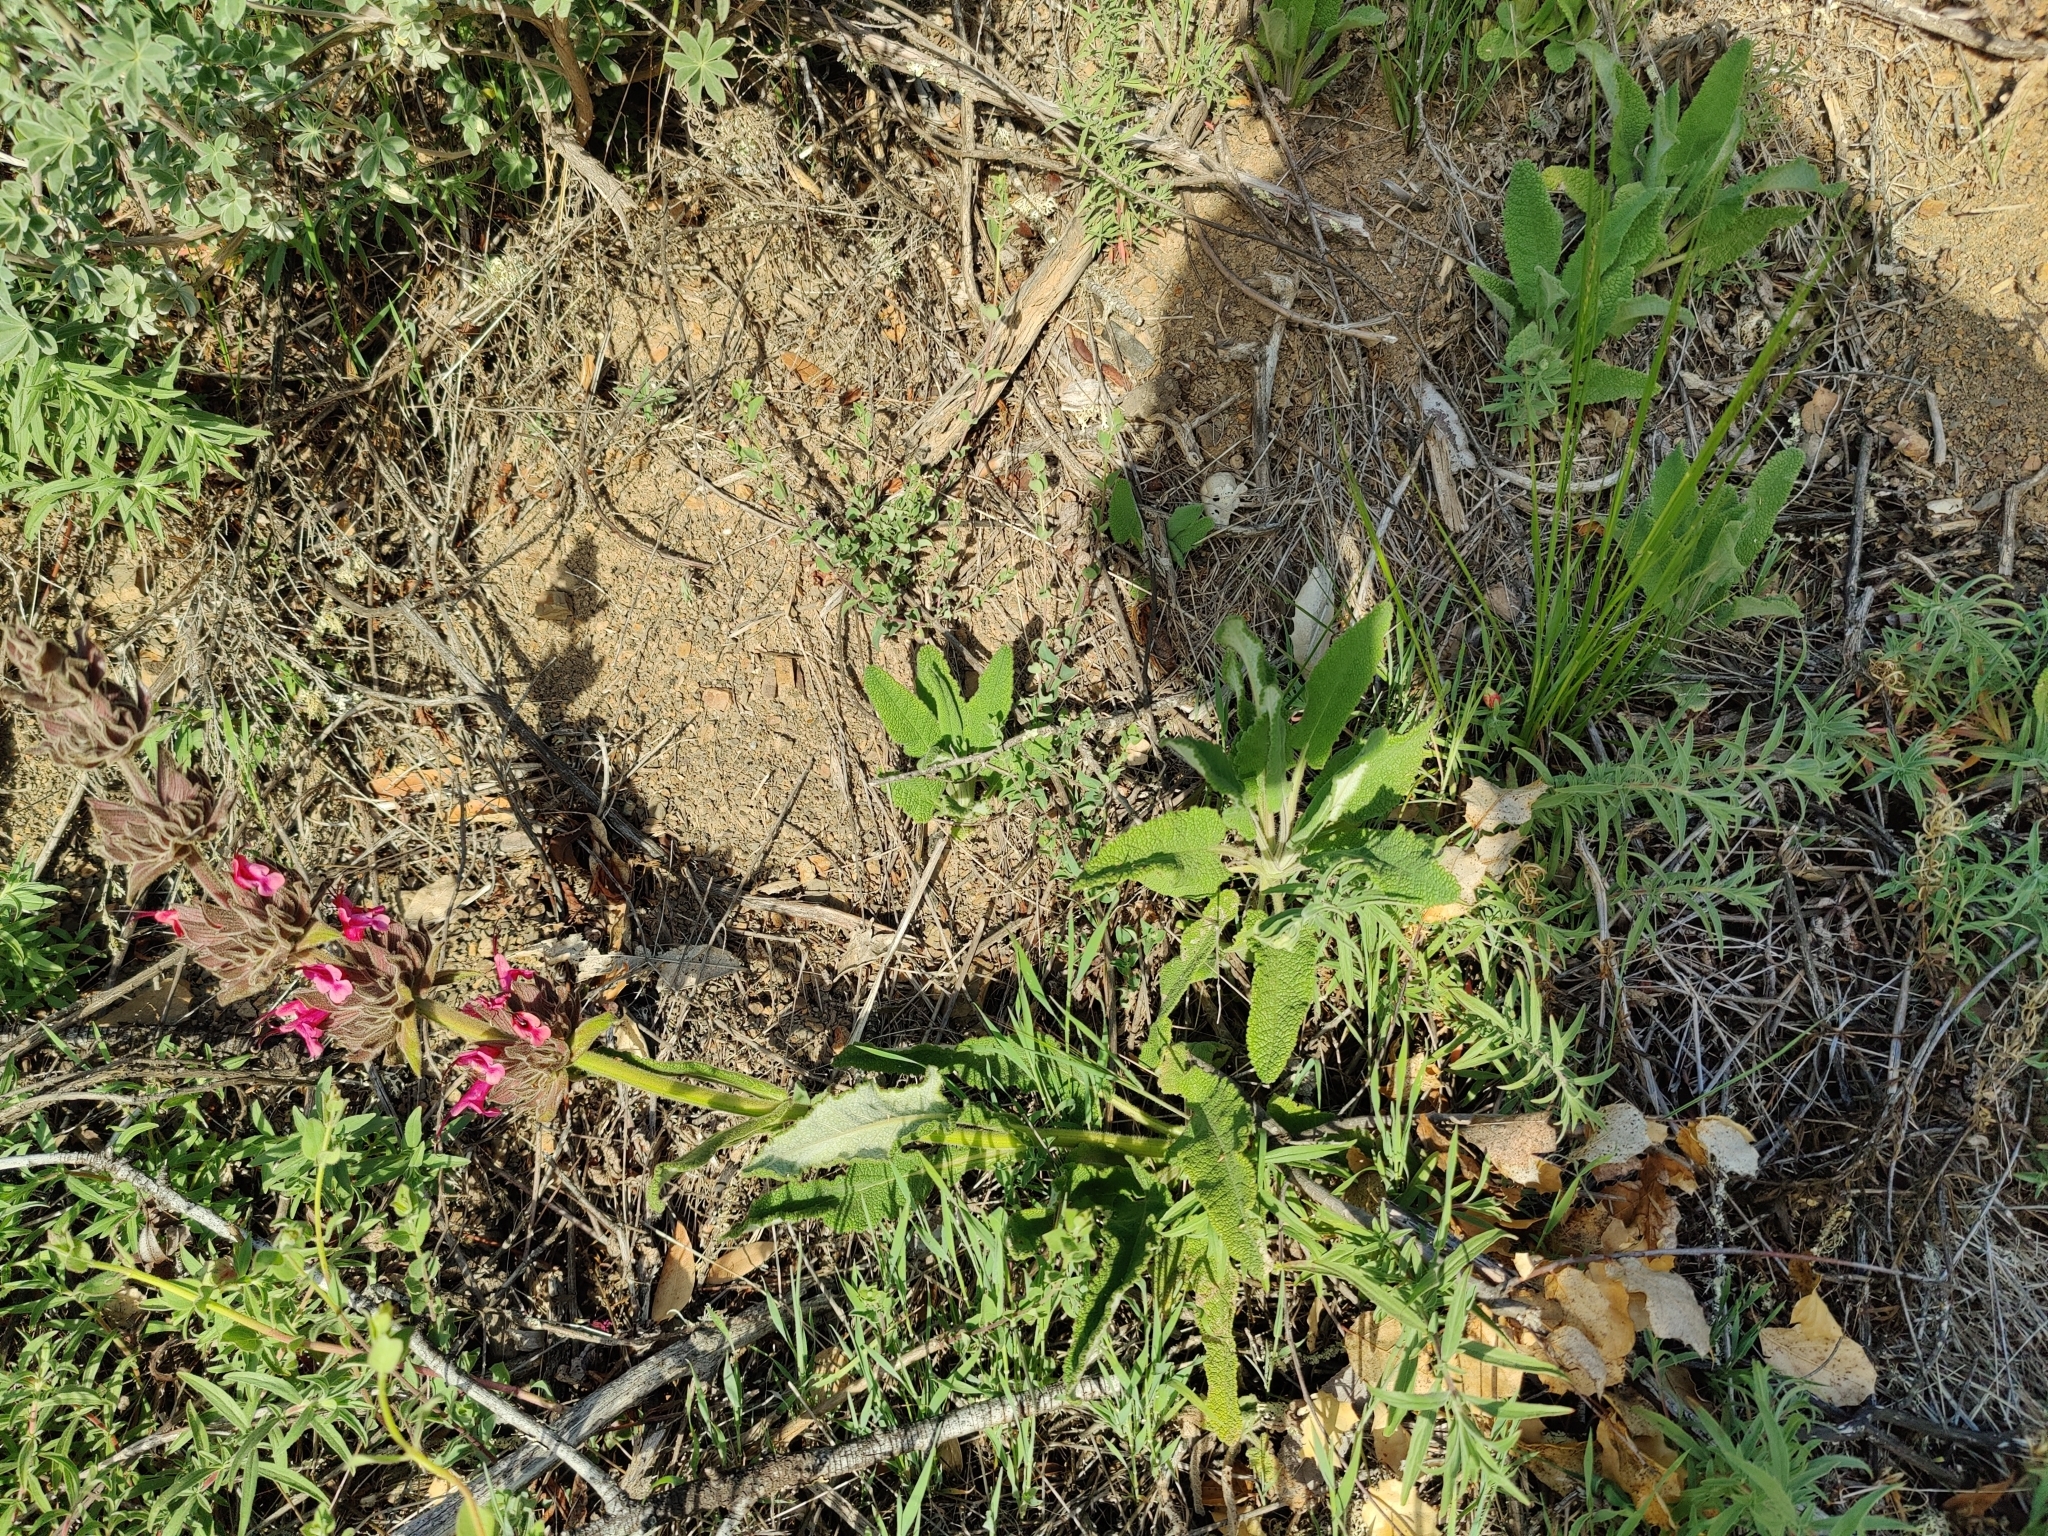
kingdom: Plantae
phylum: Tracheophyta
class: Magnoliopsida
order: Lamiales
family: Lamiaceae
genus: Salvia
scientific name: Salvia spathacea
